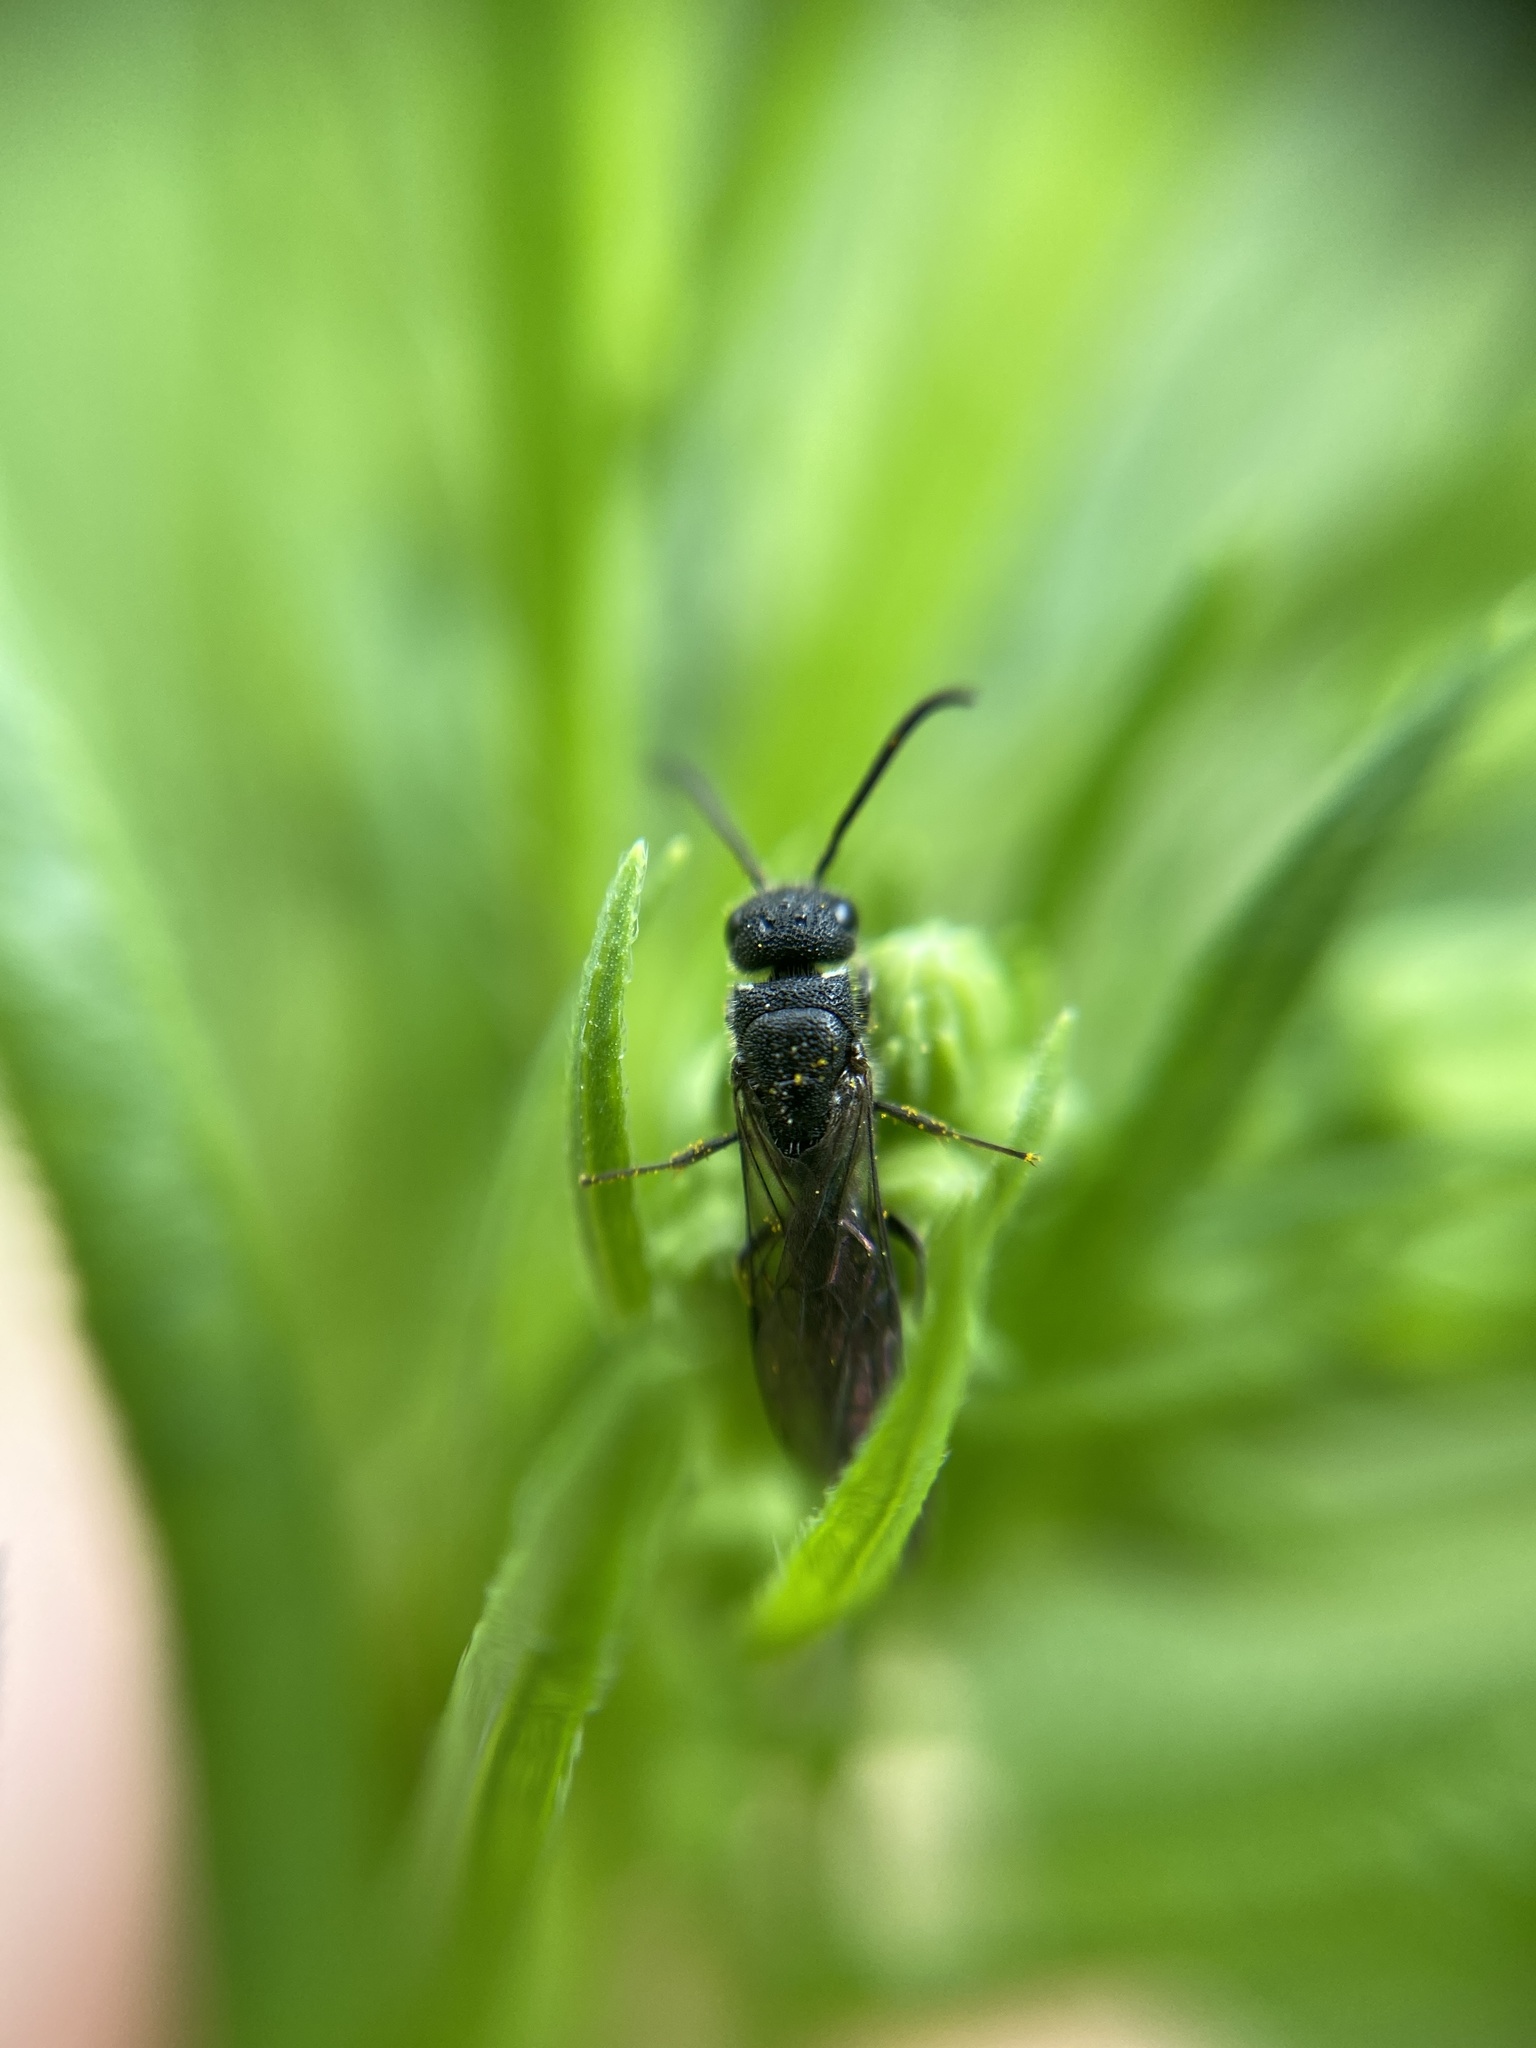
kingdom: Animalia
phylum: Arthropoda
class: Insecta
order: Hymenoptera
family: Sapygidae
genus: Sapygina
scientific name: Sapygina decemguttata
